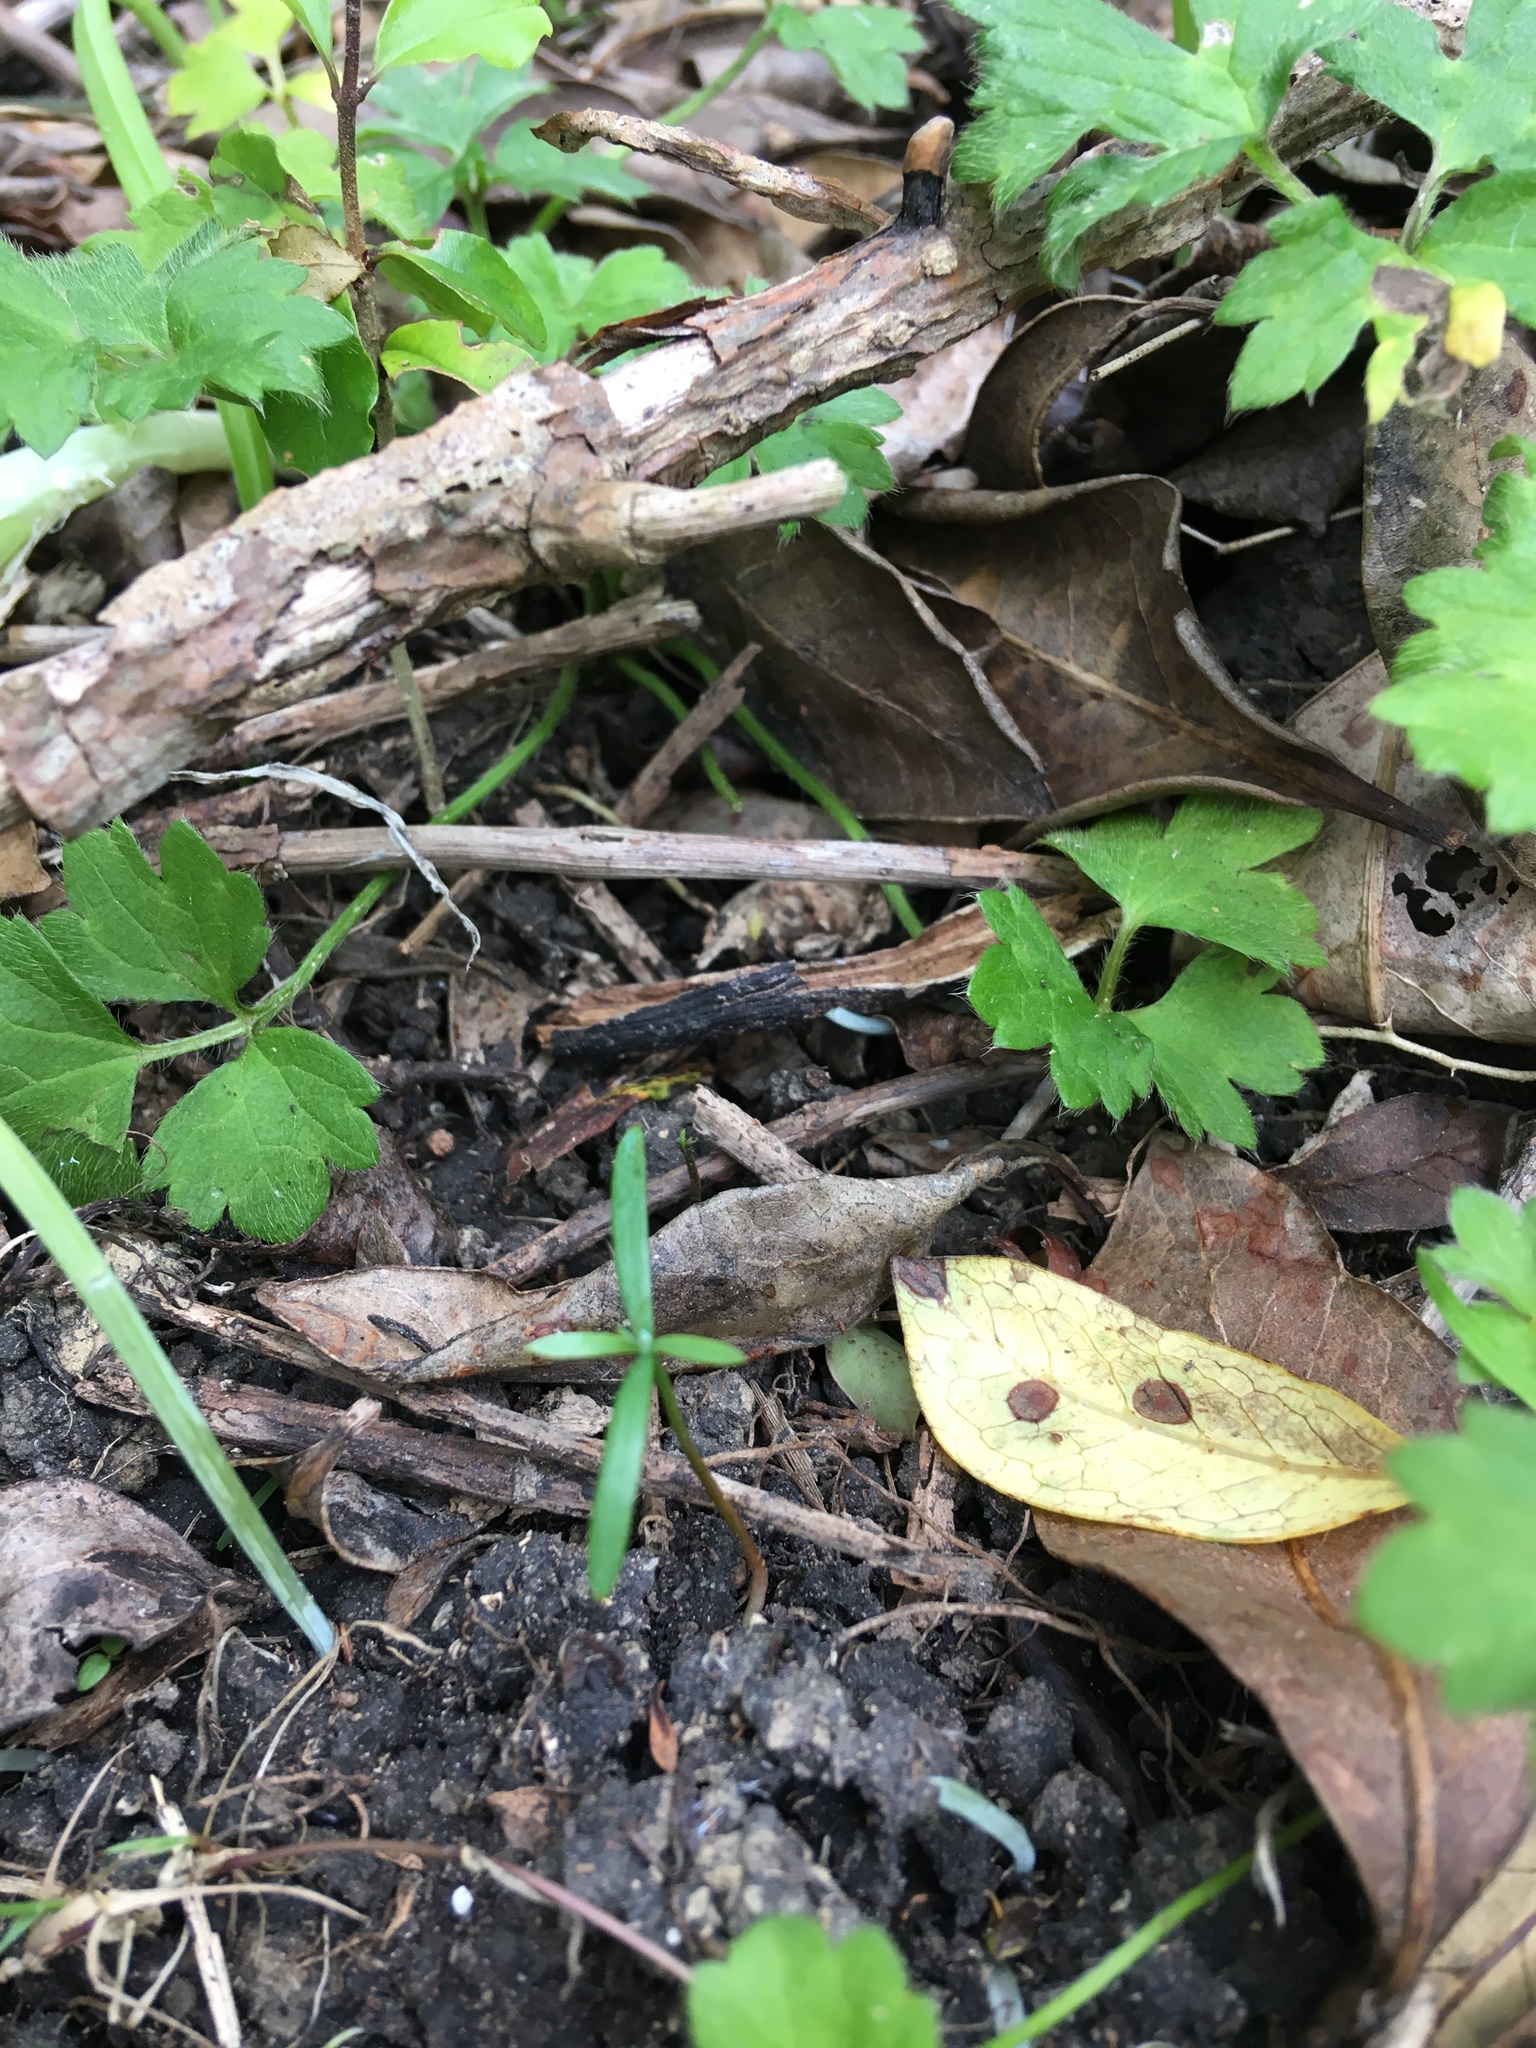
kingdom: Plantae
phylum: Tracheophyta
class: Pinopsida
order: Pinales
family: Podocarpaceae
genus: Podocarpus
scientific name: Podocarpus totara
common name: Totara
